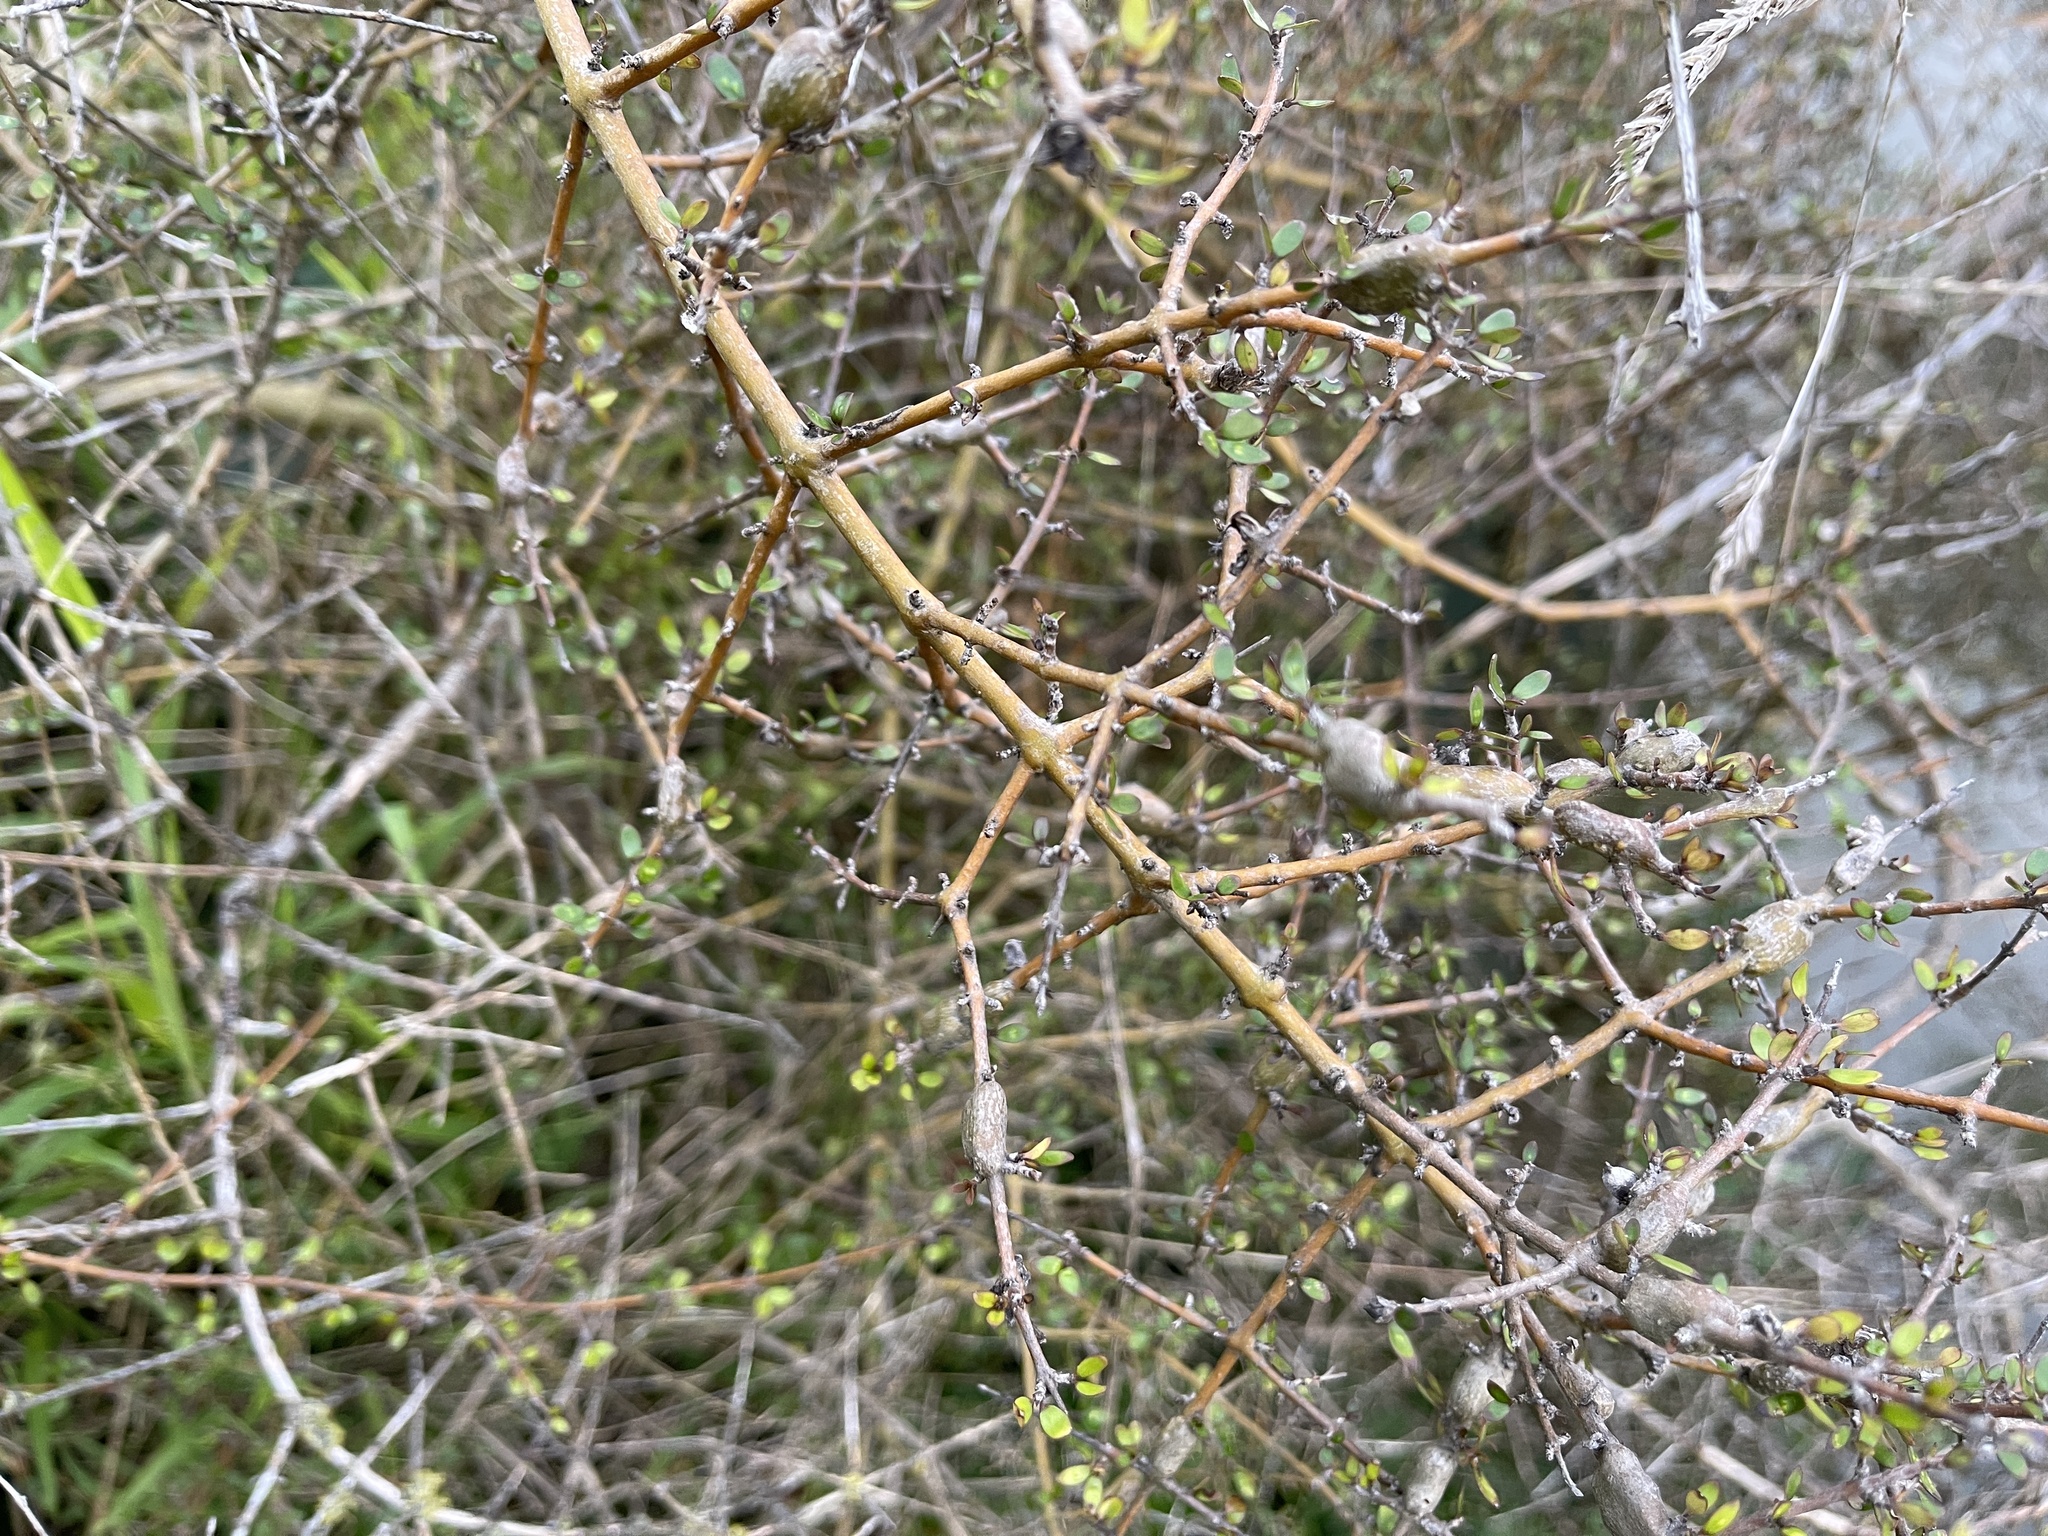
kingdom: Plantae
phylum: Tracheophyta
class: Magnoliopsida
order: Gentianales
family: Rubiaceae
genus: Coprosma
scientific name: Coprosma propinqua
